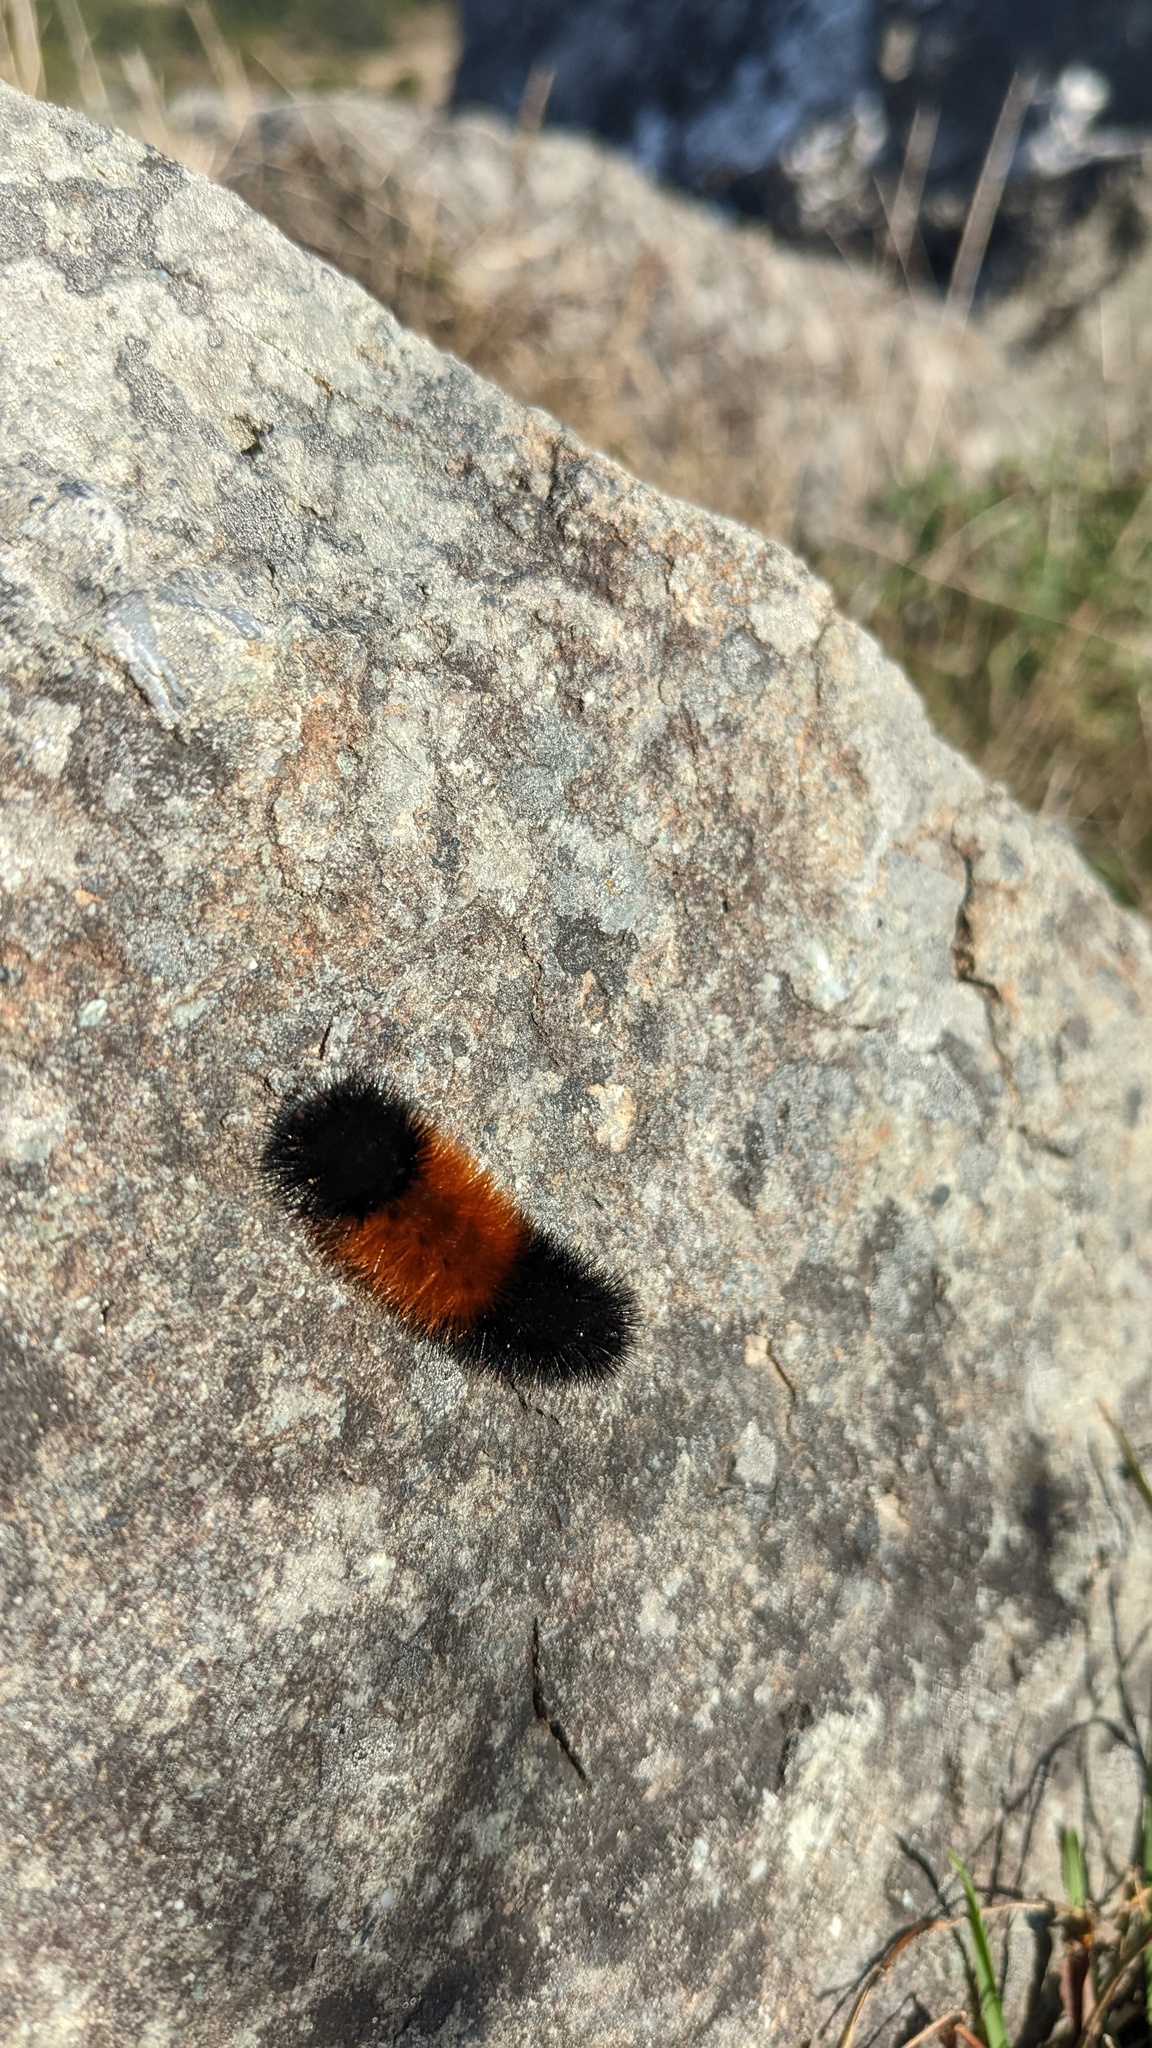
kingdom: Animalia
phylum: Arthropoda
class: Insecta
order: Lepidoptera
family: Erebidae
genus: Pyrrharctia
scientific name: Pyrrharctia isabella
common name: Isabella tiger moth
